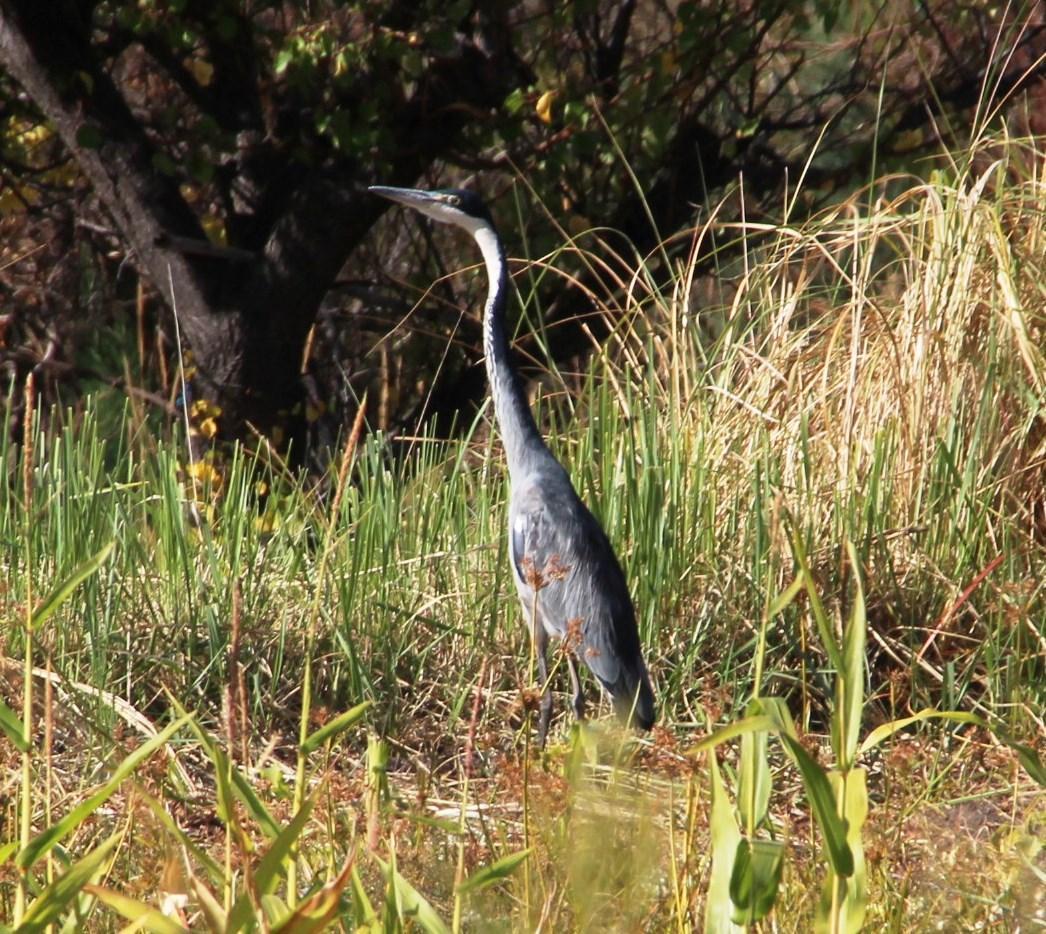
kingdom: Animalia
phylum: Chordata
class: Aves
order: Pelecaniformes
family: Ardeidae
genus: Ardea
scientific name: Ardea melanocephala
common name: Black-headed heron
